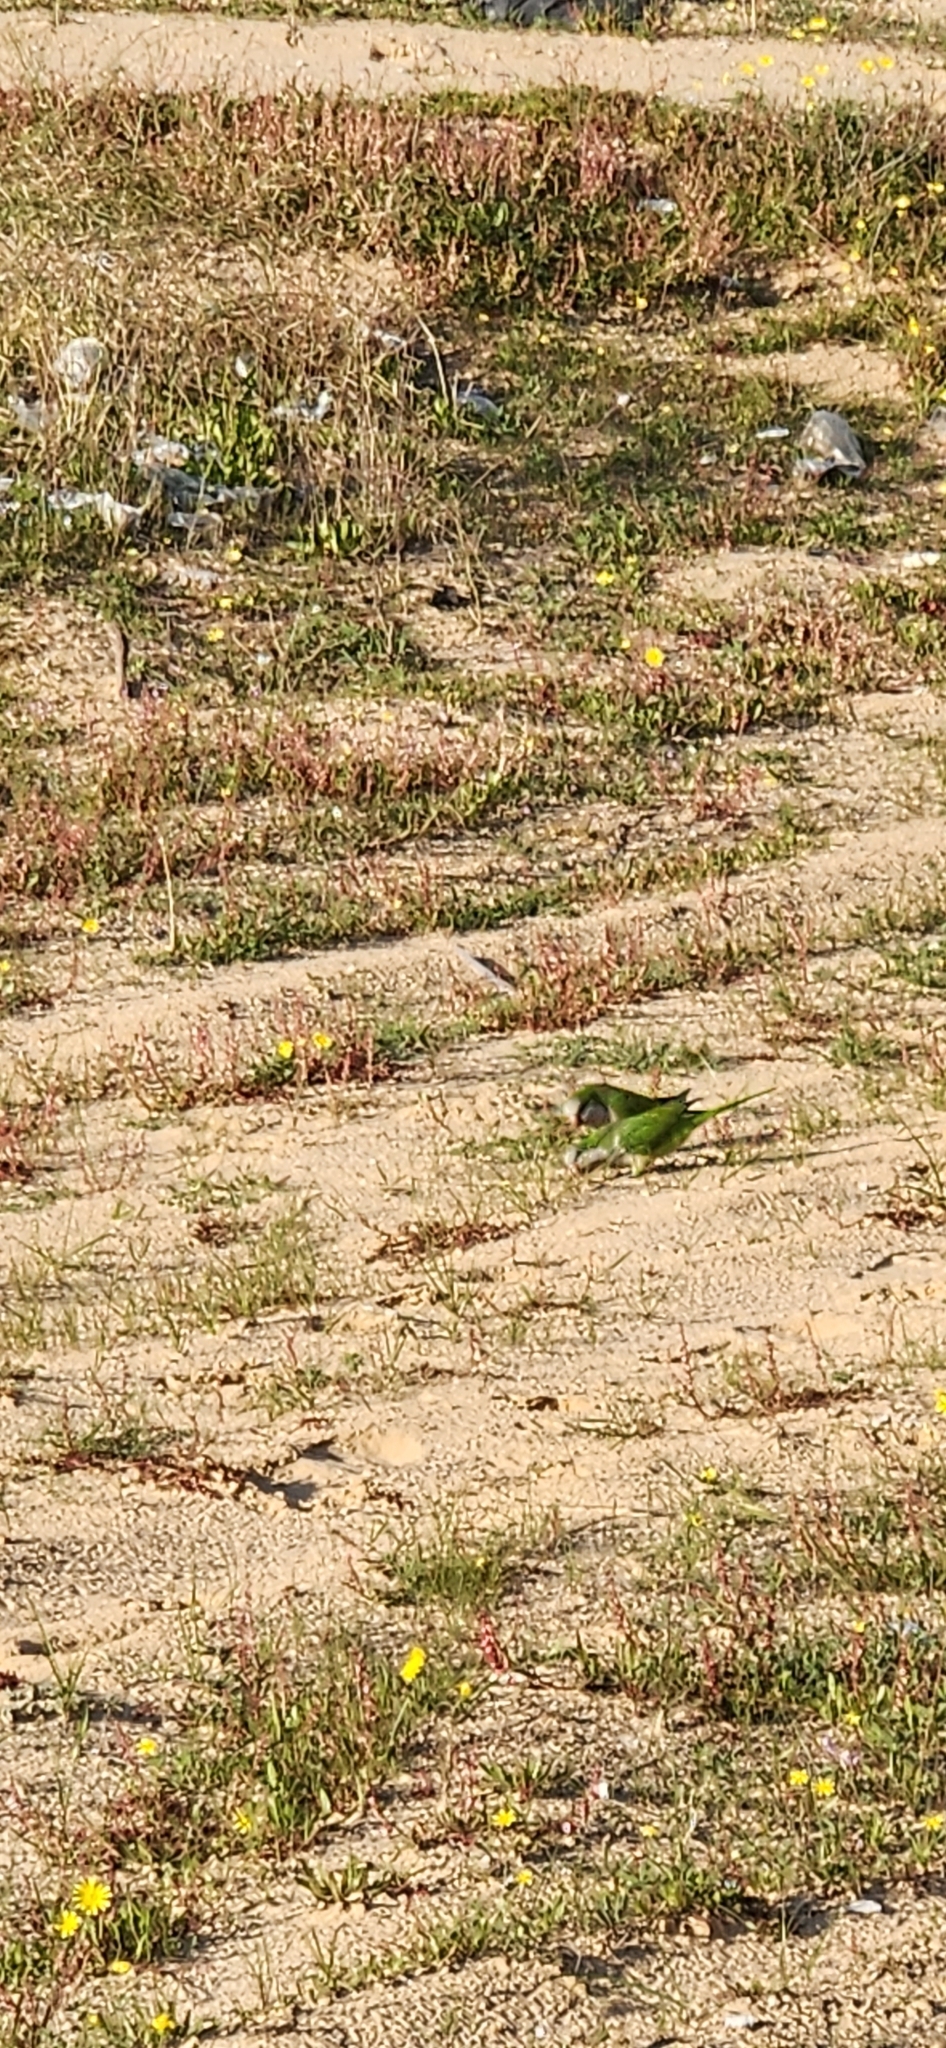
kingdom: Animalia
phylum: Chordata
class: Aves
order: Psittaciformes
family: Psittacidae
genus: Myiopsitta
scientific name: Myiopsitta monachus
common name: Monk parakeet
